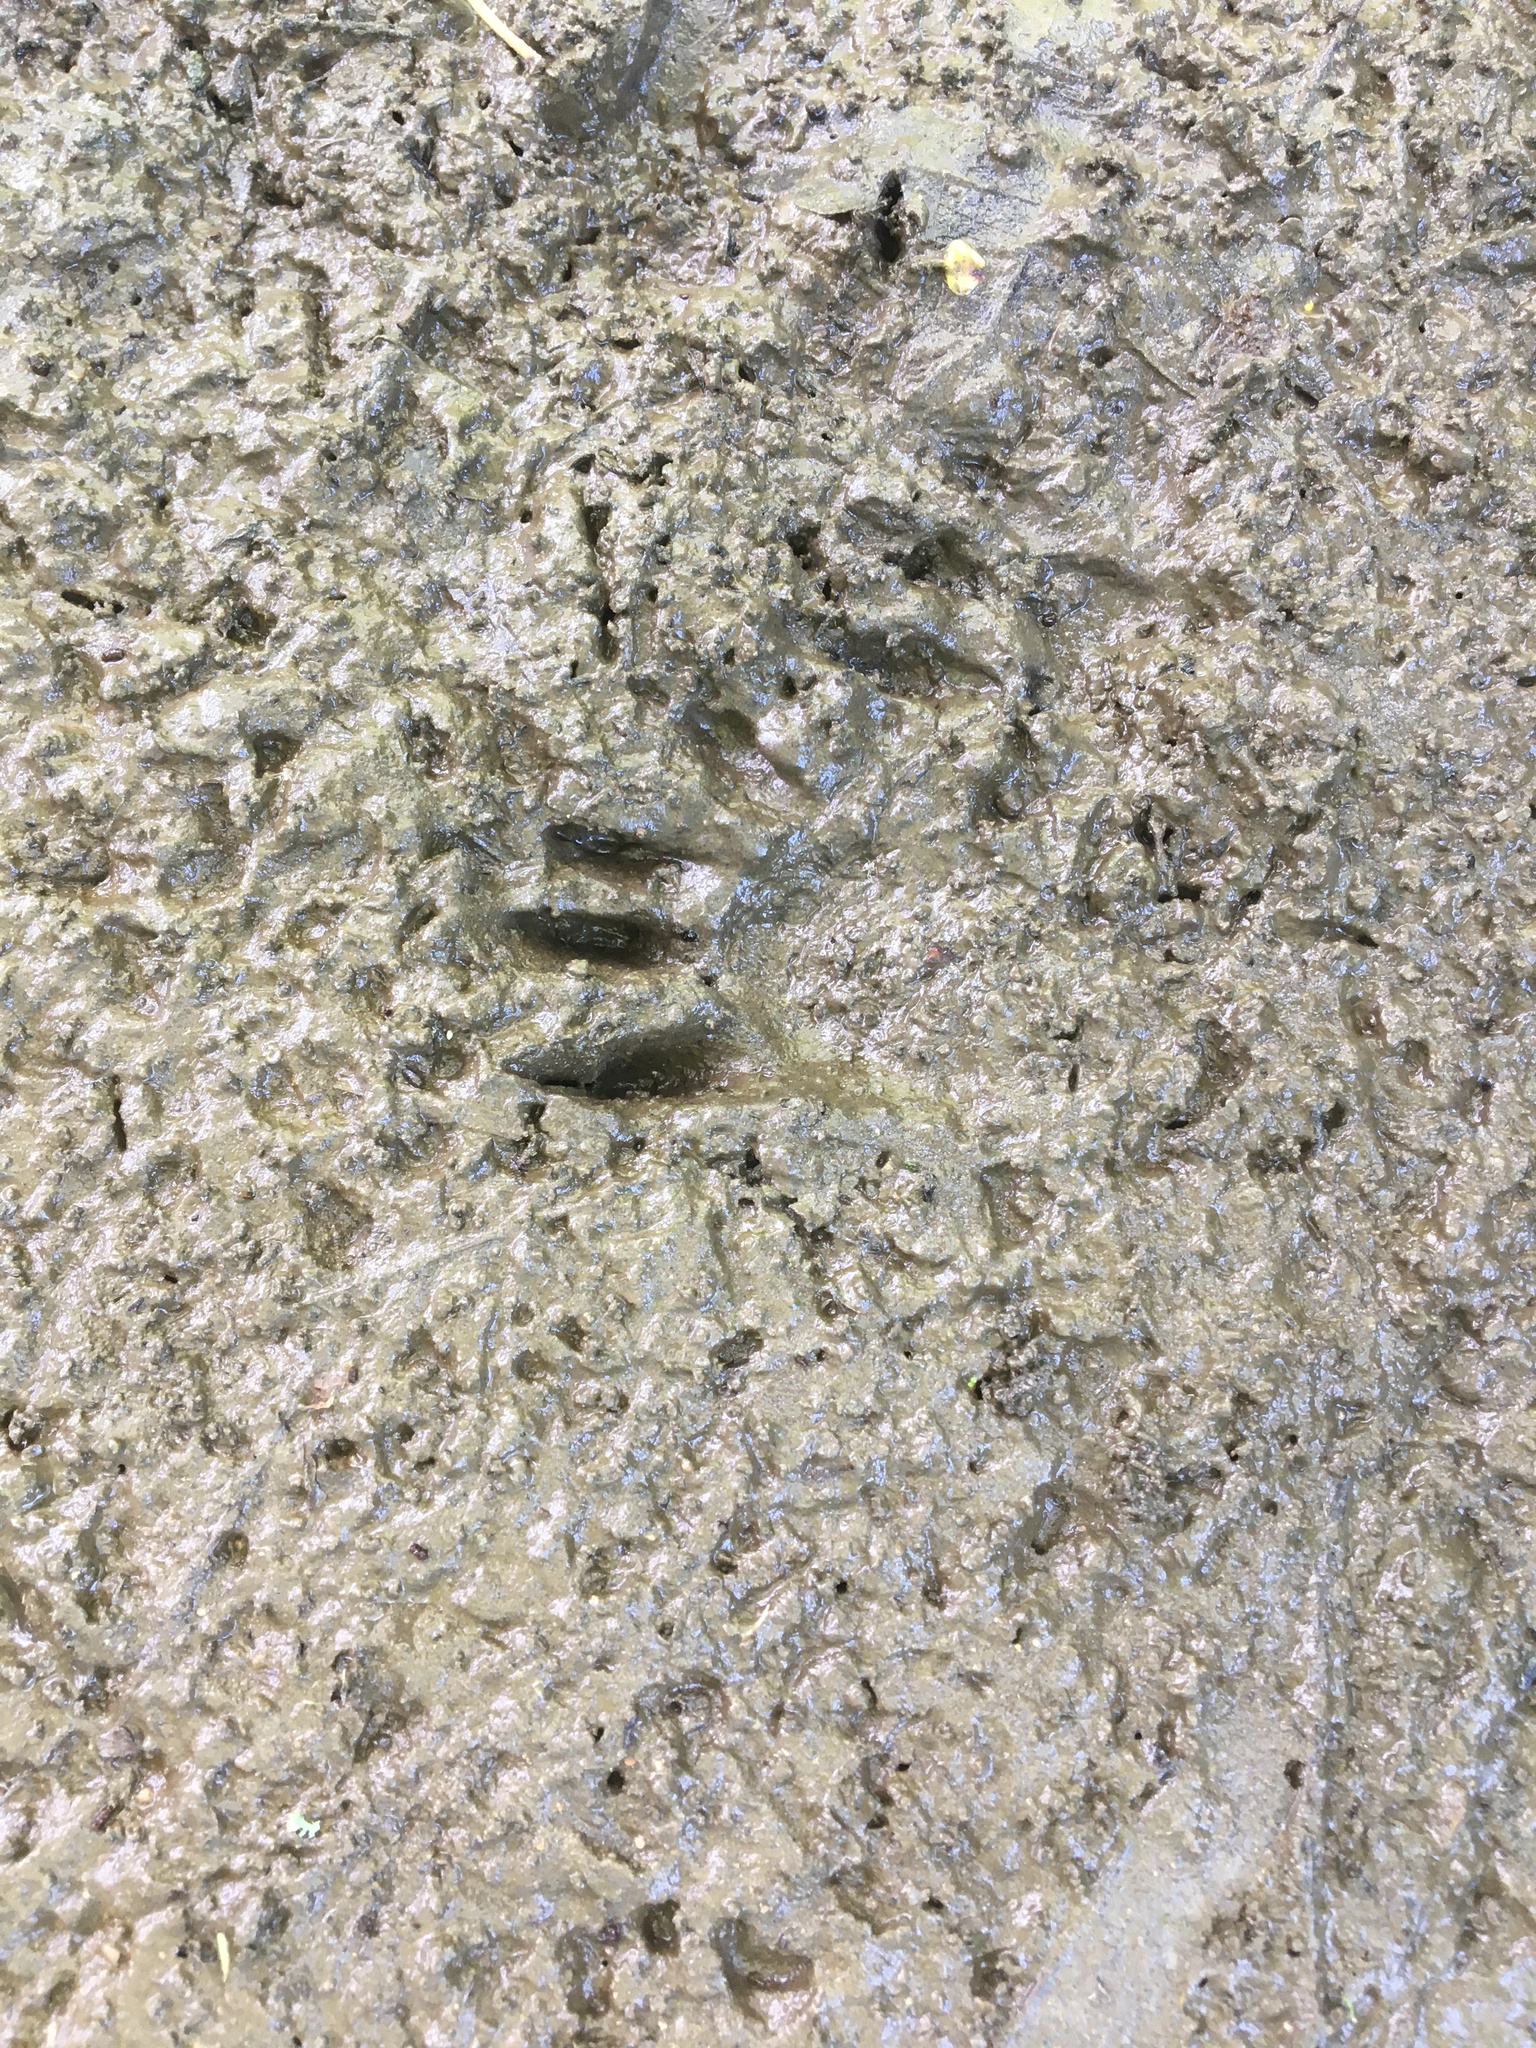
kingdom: Animalia
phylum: Chordata
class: Mammalia
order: Carnivora
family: Procyonidae
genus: Procyon
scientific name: Procyon lotor
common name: Raccoon
